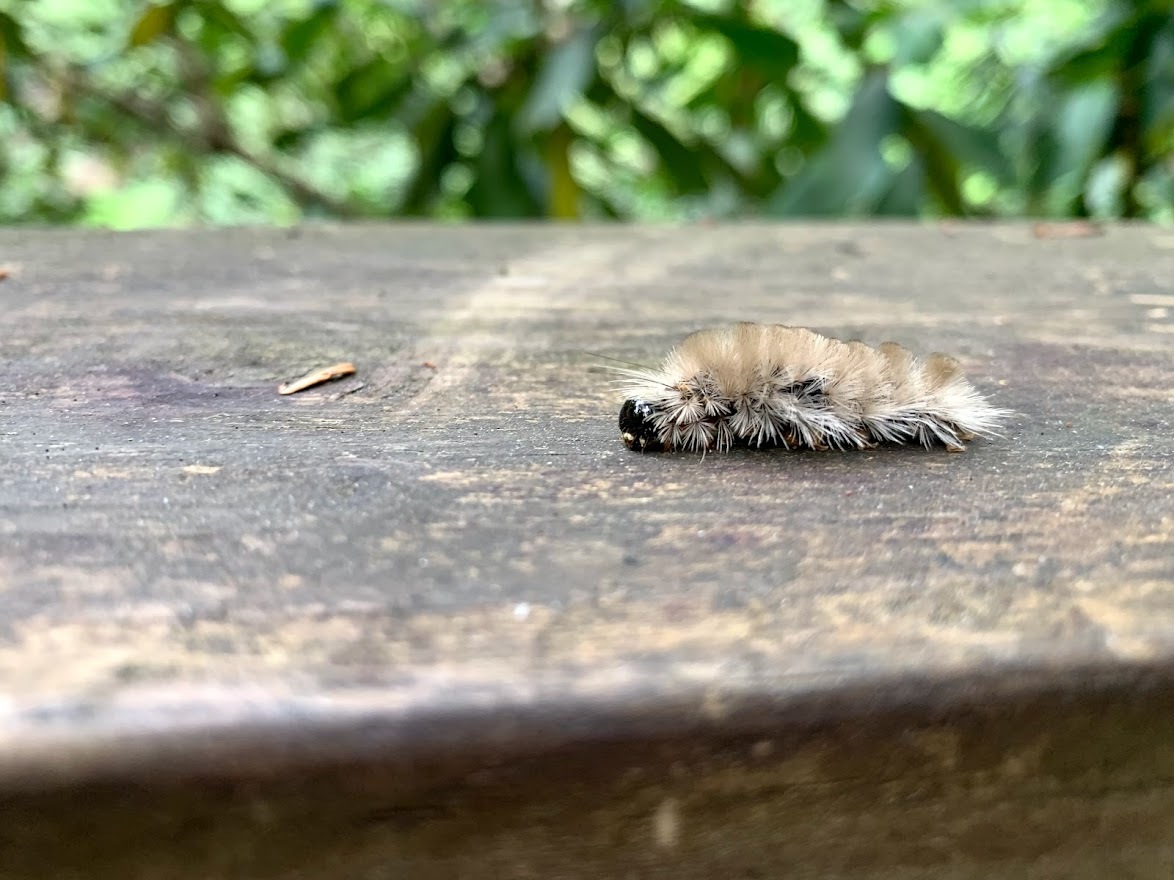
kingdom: Animalia
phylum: Arthropoda
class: Insecta
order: Lepidoptera
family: Erebidae
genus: Halysidota
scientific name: Halysidota tessellaris
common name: Banded tussock moth
